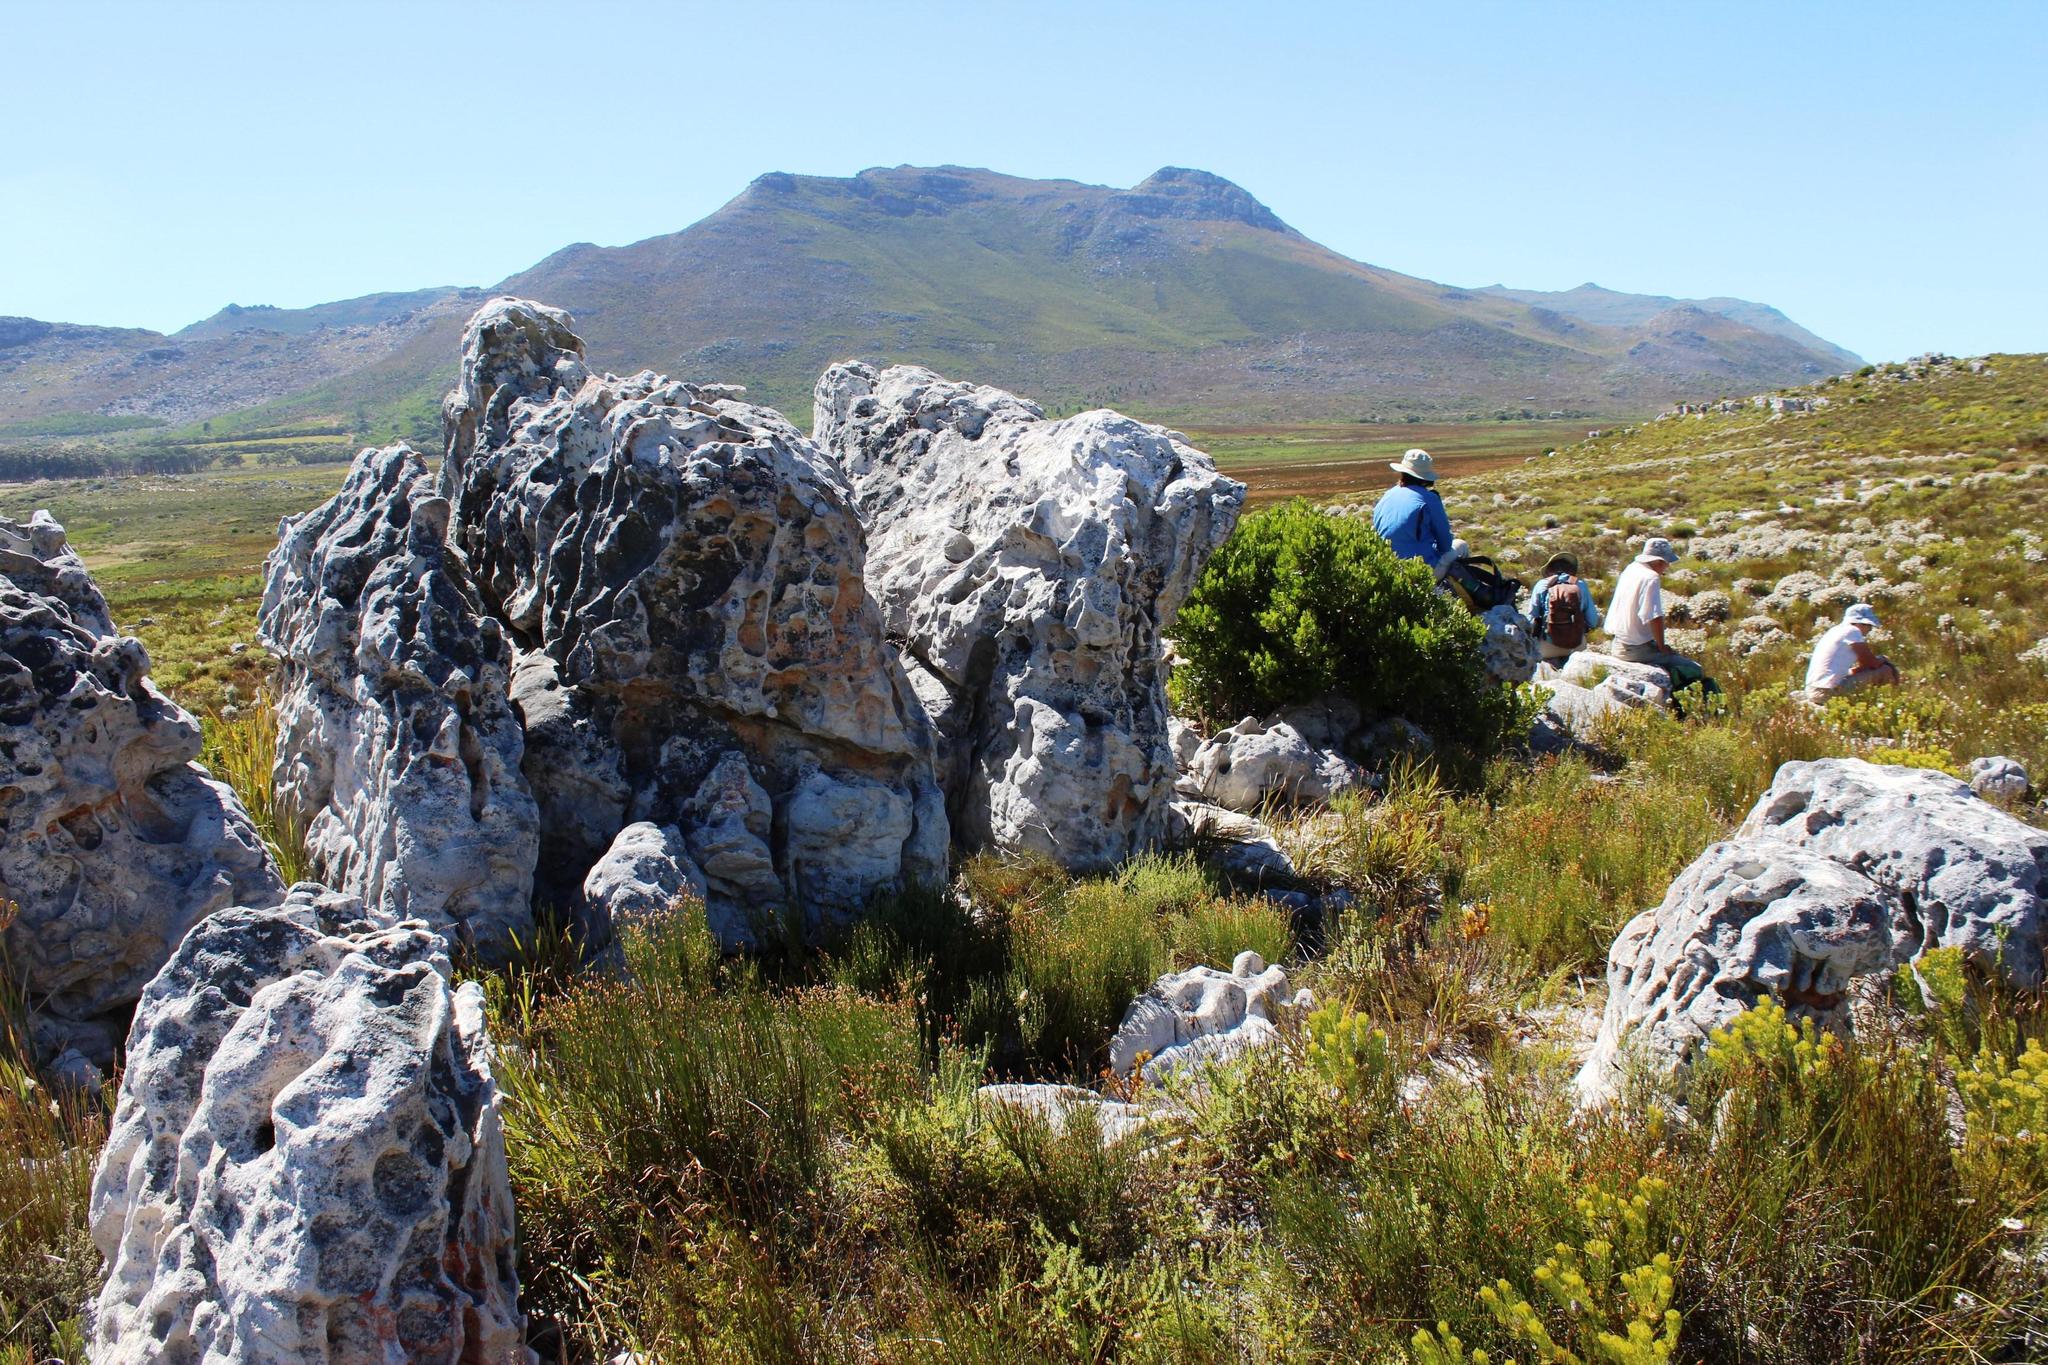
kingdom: Fungi
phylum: Ascomycota
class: Lecanoromycetes
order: Caliciales
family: Caliciaceae
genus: Dimelaena
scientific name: Dimelaena australiensis
